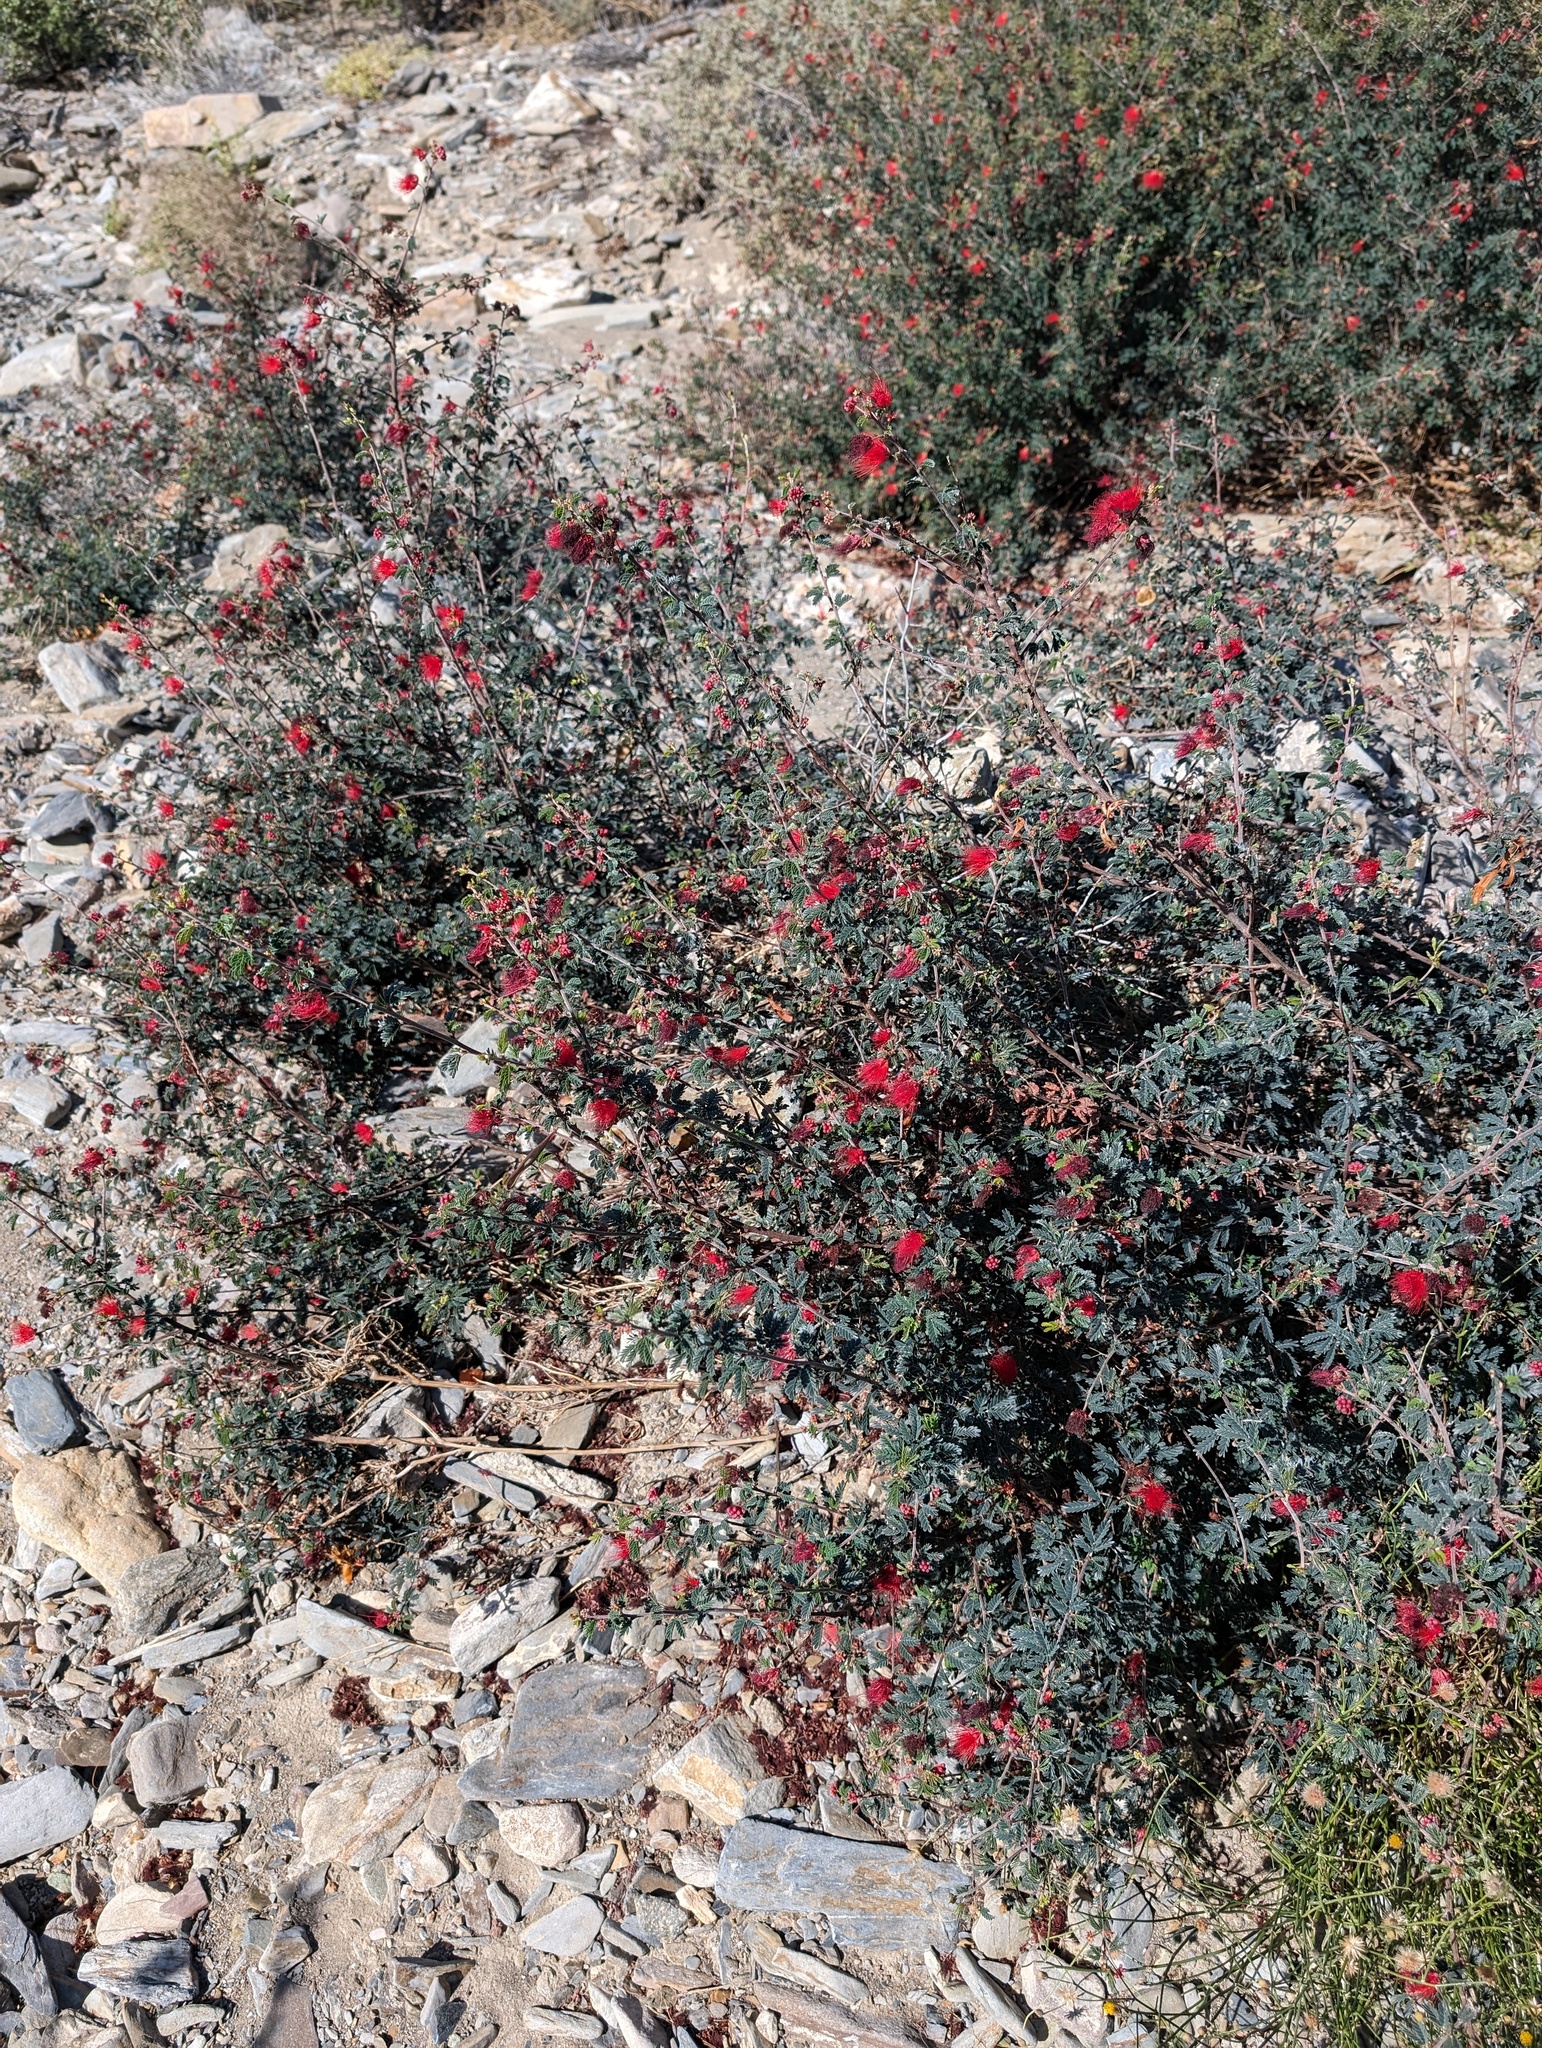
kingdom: Plantae
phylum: Tracheophyta
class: Magnoliopsida
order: Fabales
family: Fabaceae
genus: Calliandra
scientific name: Calliandra californica
